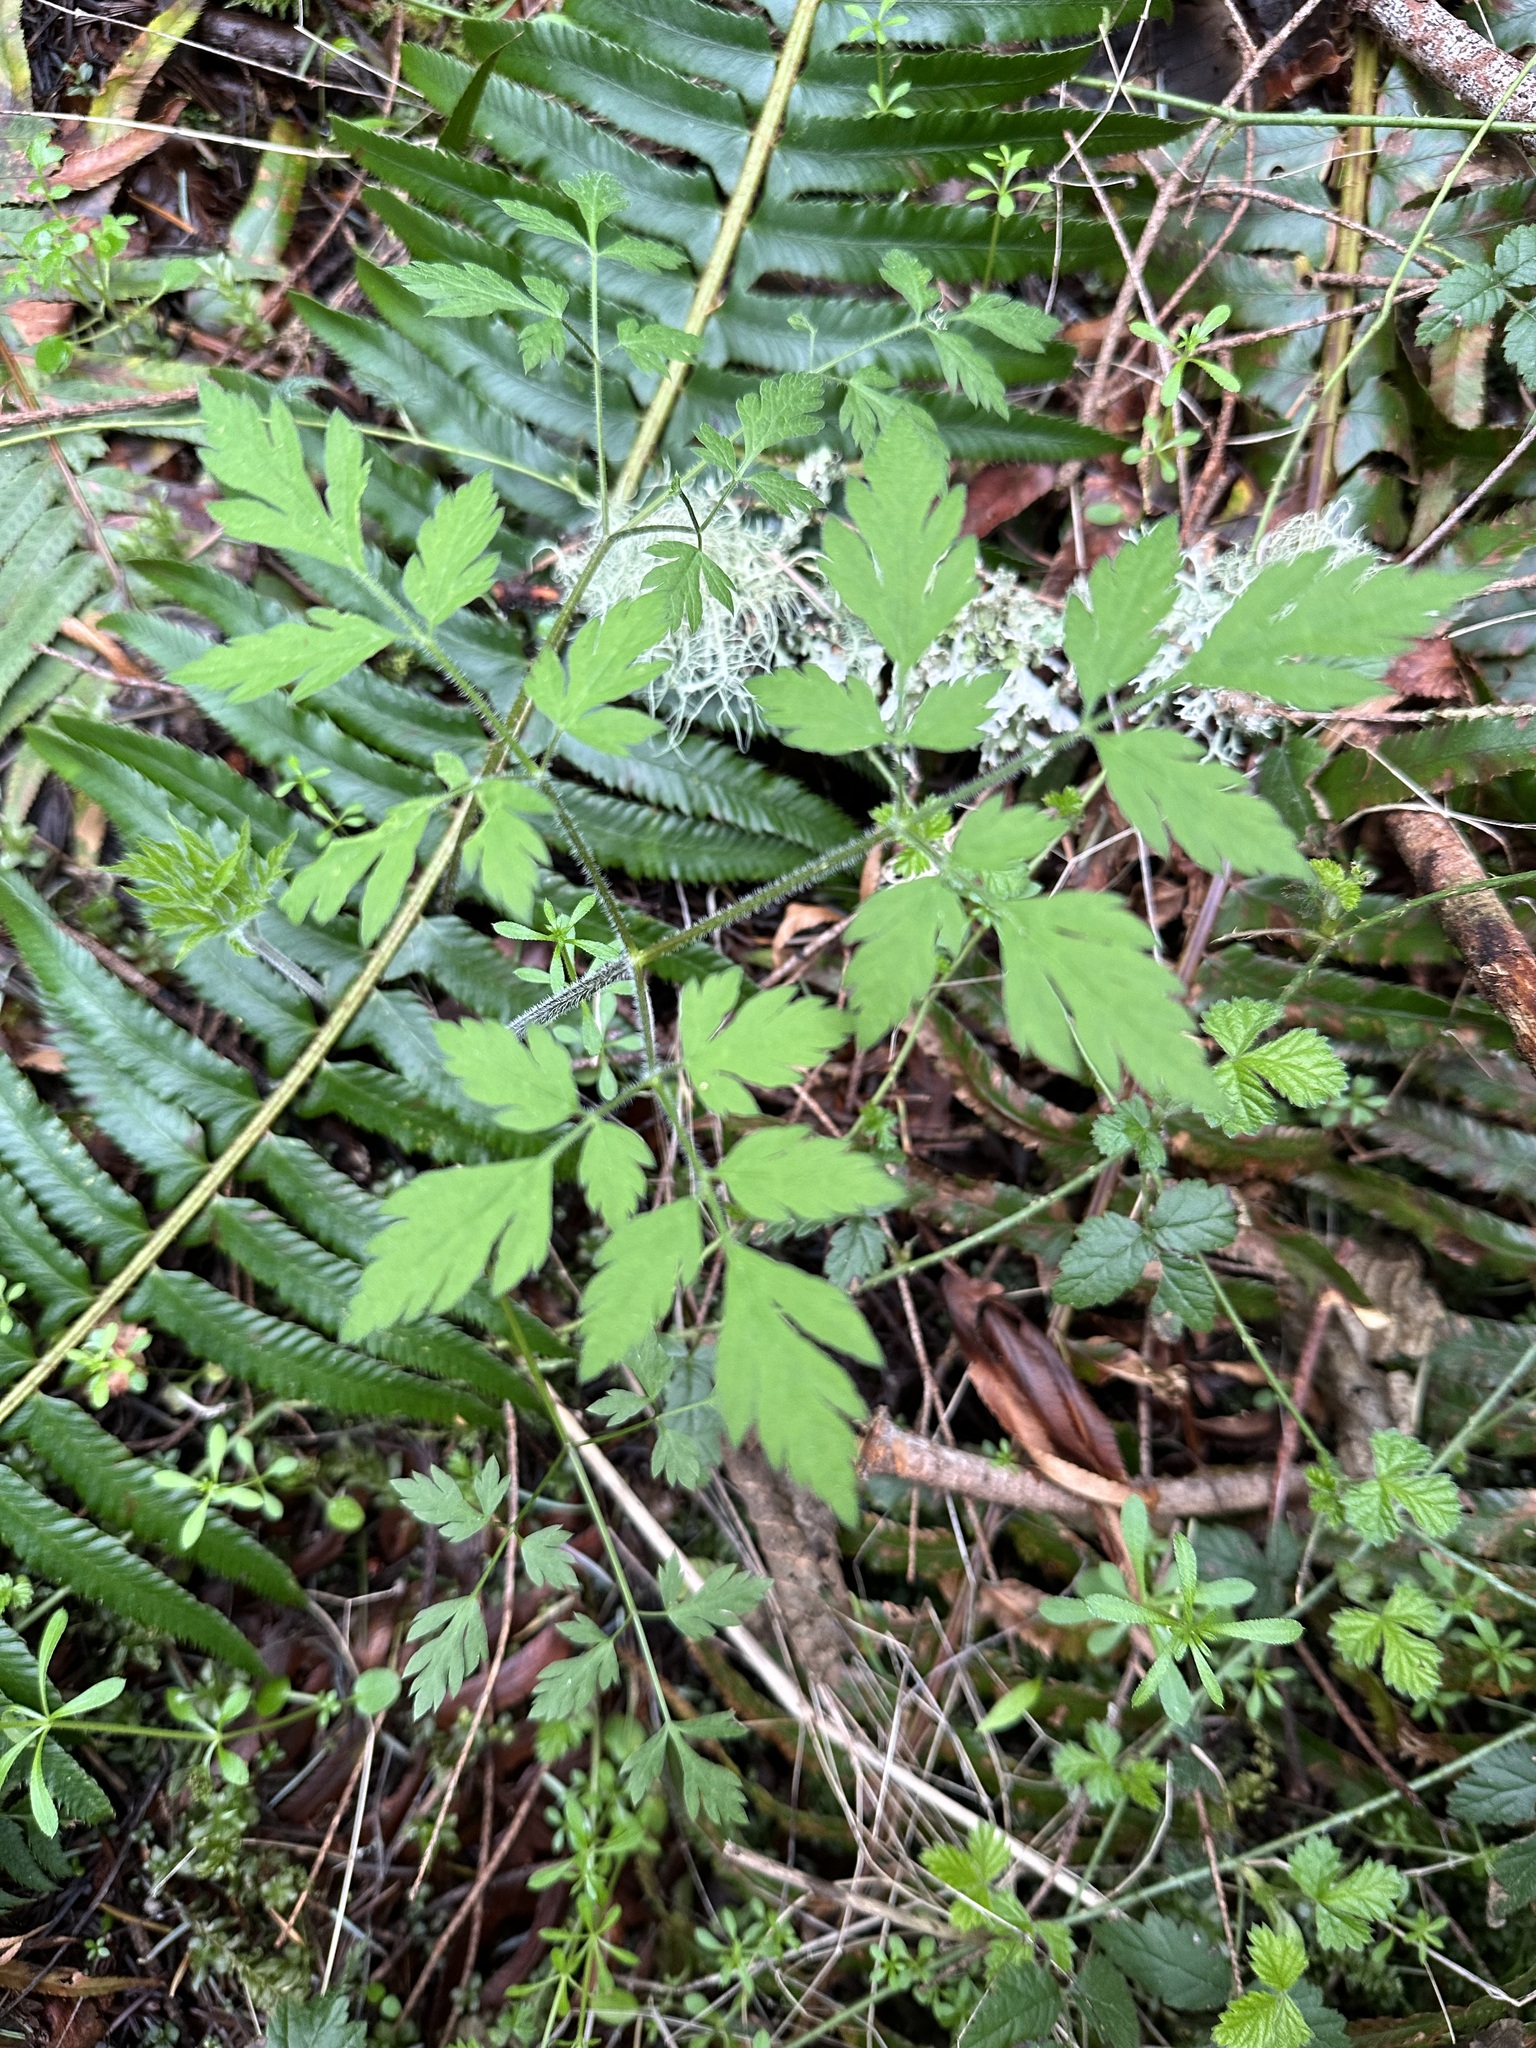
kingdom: Plantae
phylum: Tracheophyta
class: Magnoliopsida
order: Apiales
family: Apiaceae
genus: Osmorhiza
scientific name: Osmorhiza berteroi
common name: Mountain sweet cicely
